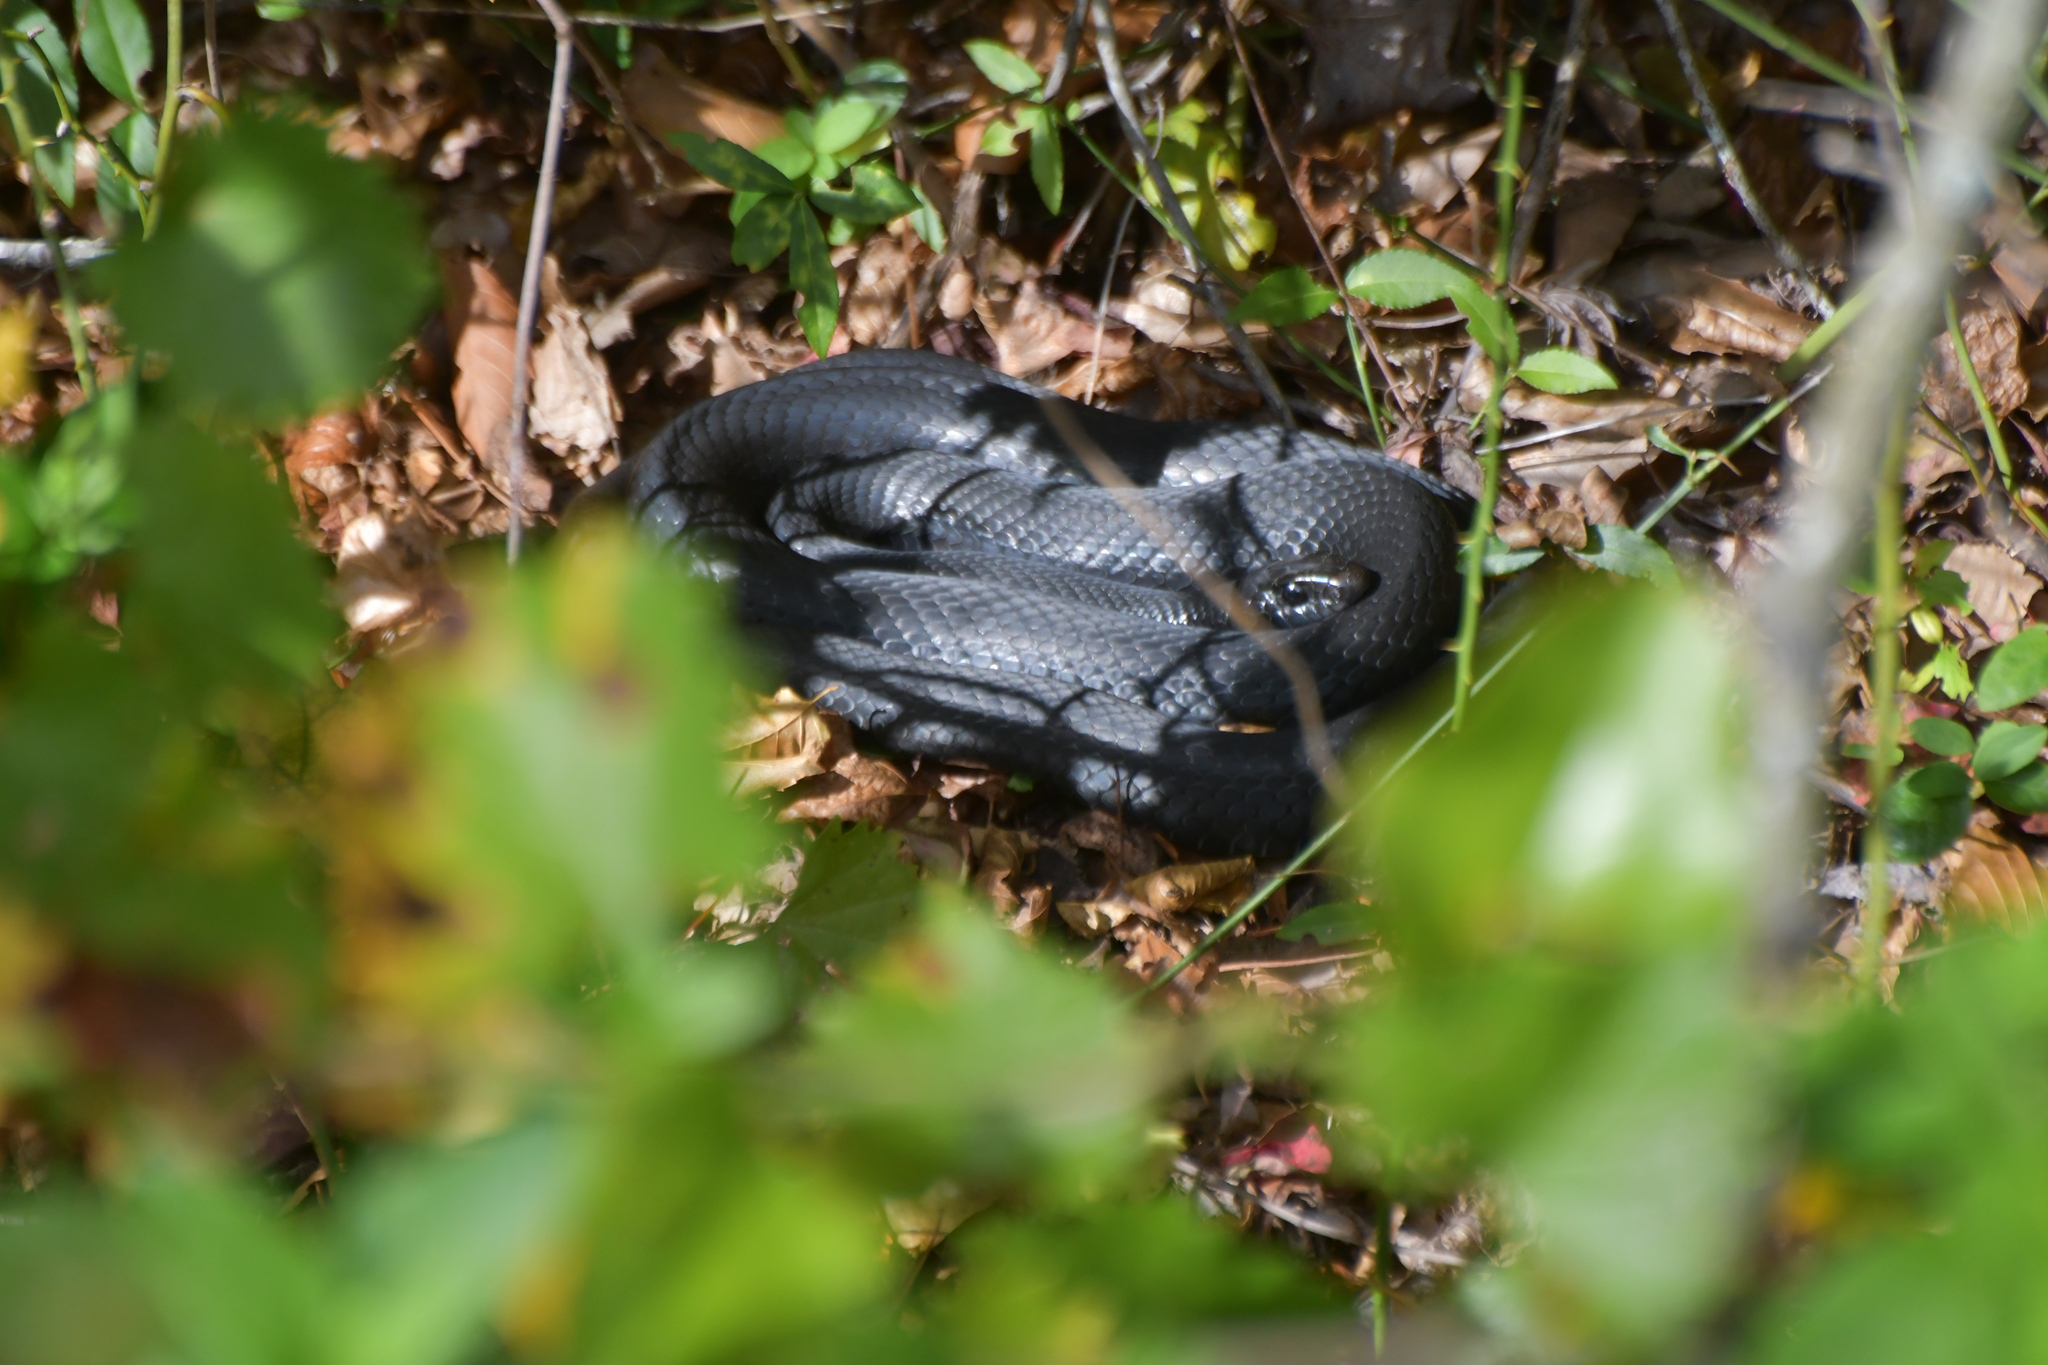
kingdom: Animalia
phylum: Chordata
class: Squamata
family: Colubridae
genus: Coluber
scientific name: Coluber constrictor
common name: Eastern racer
